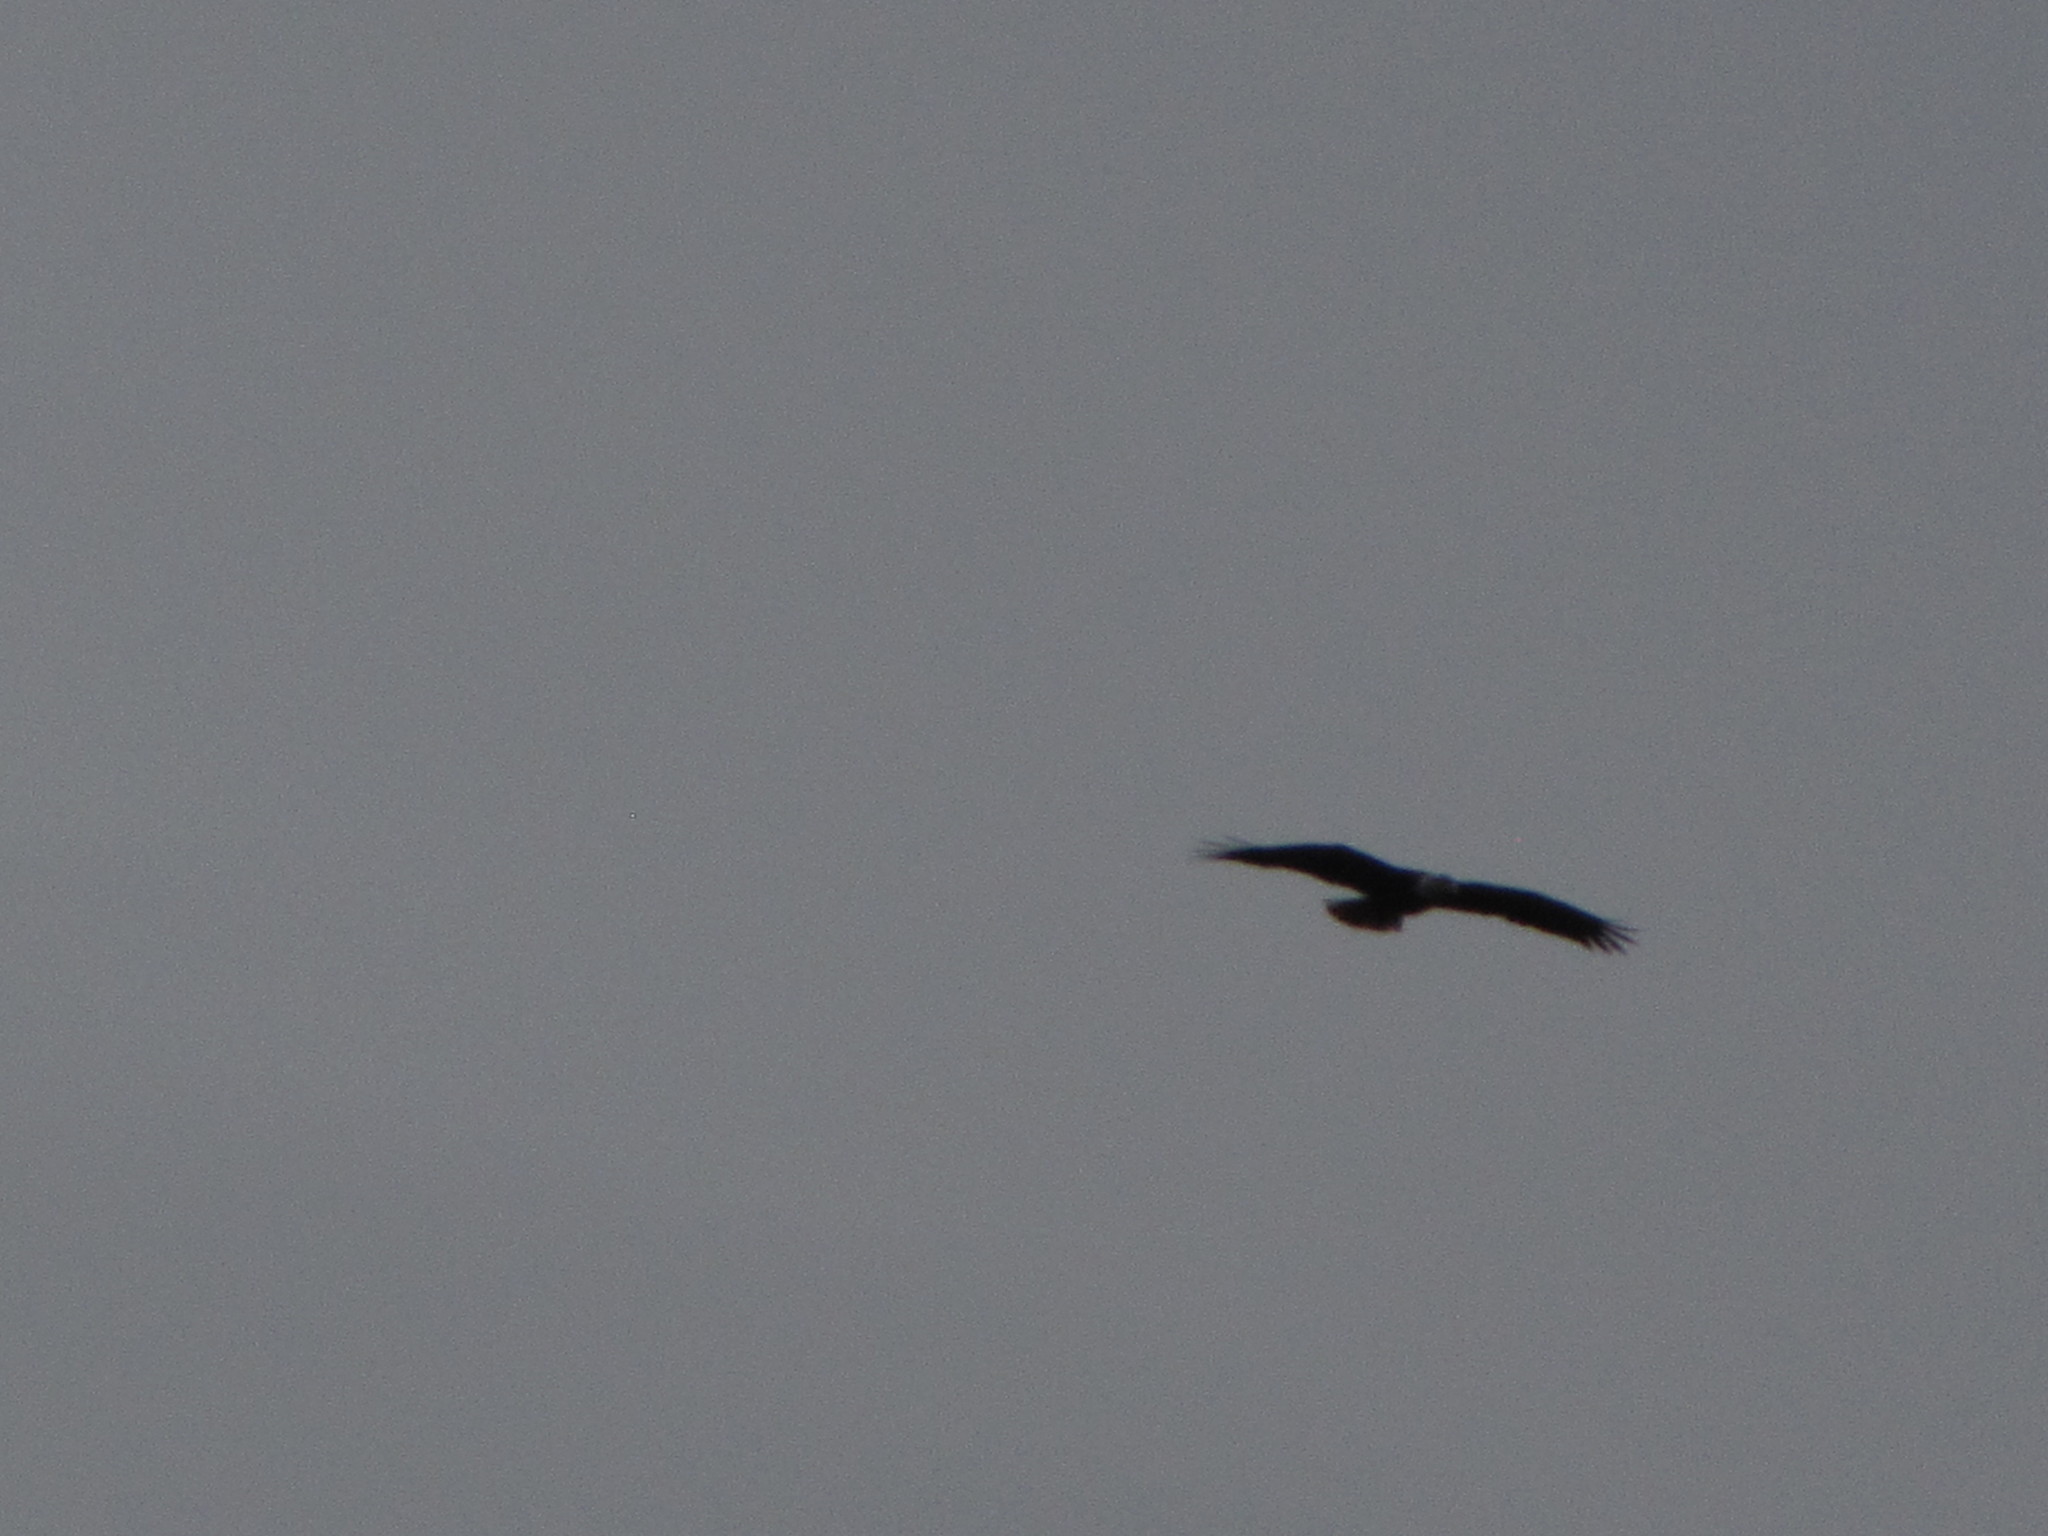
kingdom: Animalia
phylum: Chordata
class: Aves
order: Accipitriformes
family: Accipitridae
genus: Haliaeetus
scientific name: Haliaeetus leucocephalus
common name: Bald eagle
